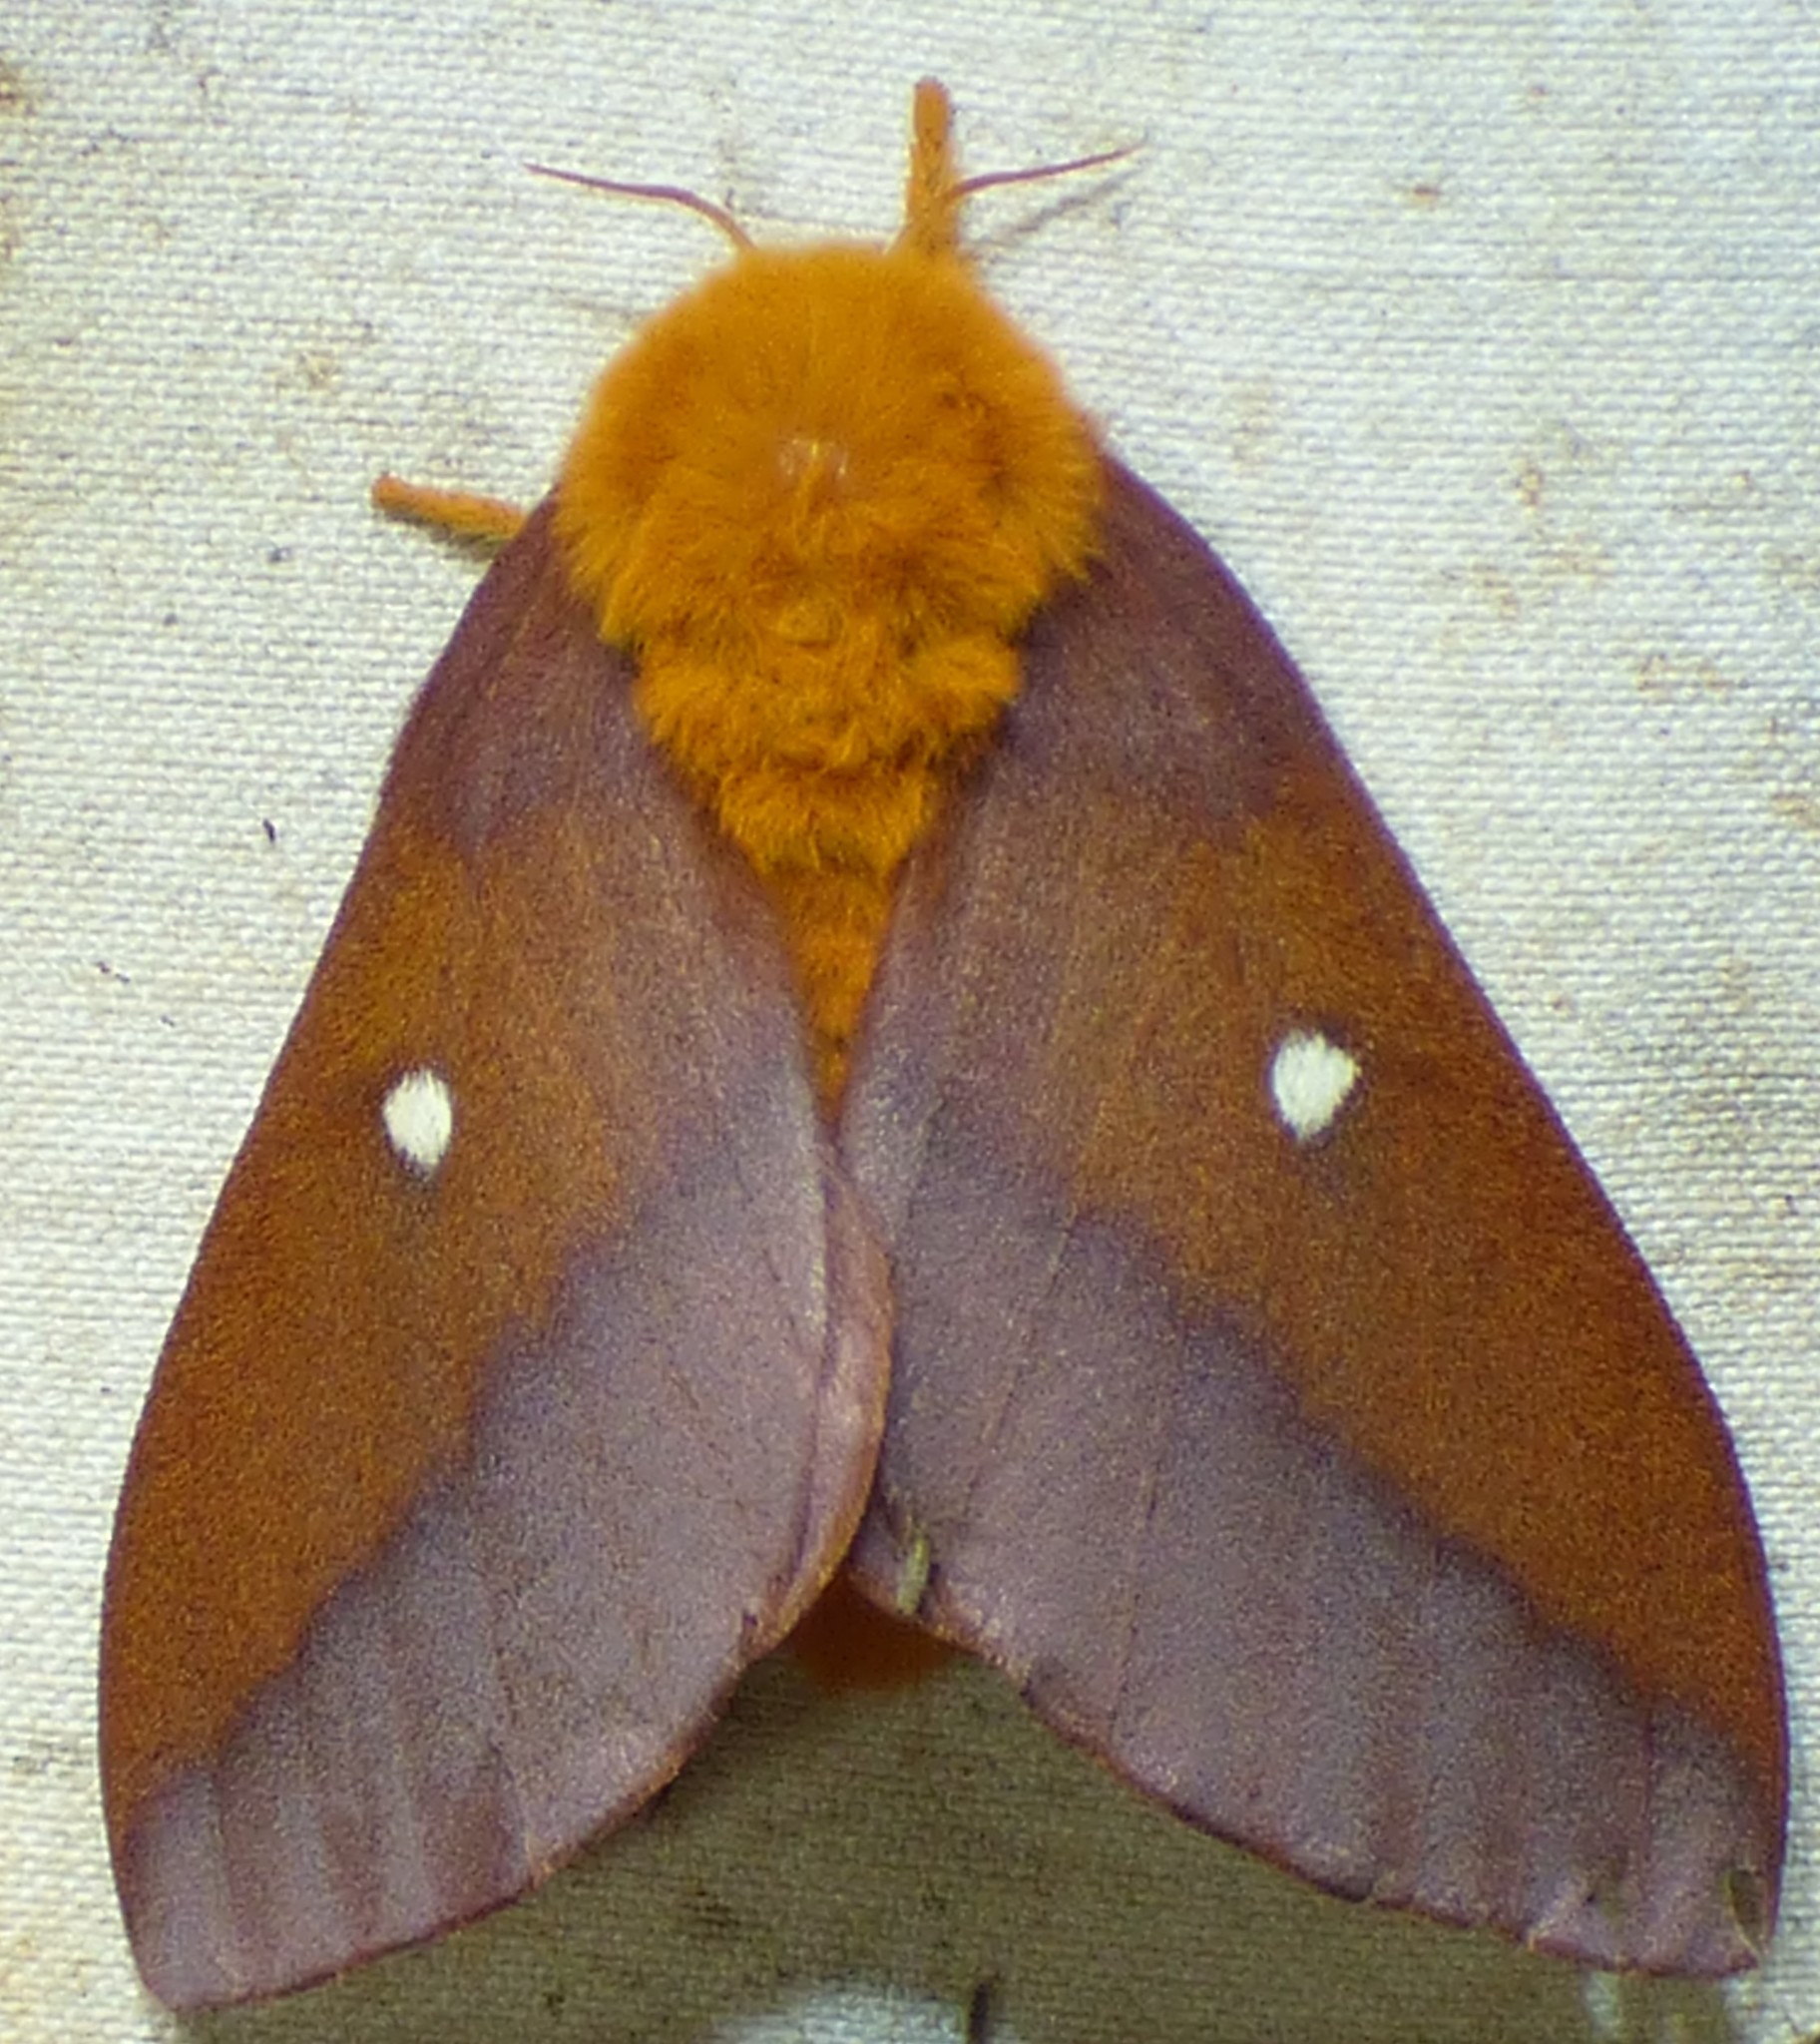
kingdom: Animalia
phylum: Arthropoda
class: Insecta
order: Lepidoptera
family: Saturniidae
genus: Anisota
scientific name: Anisota virginiensis
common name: Pink striped oakworm moth
